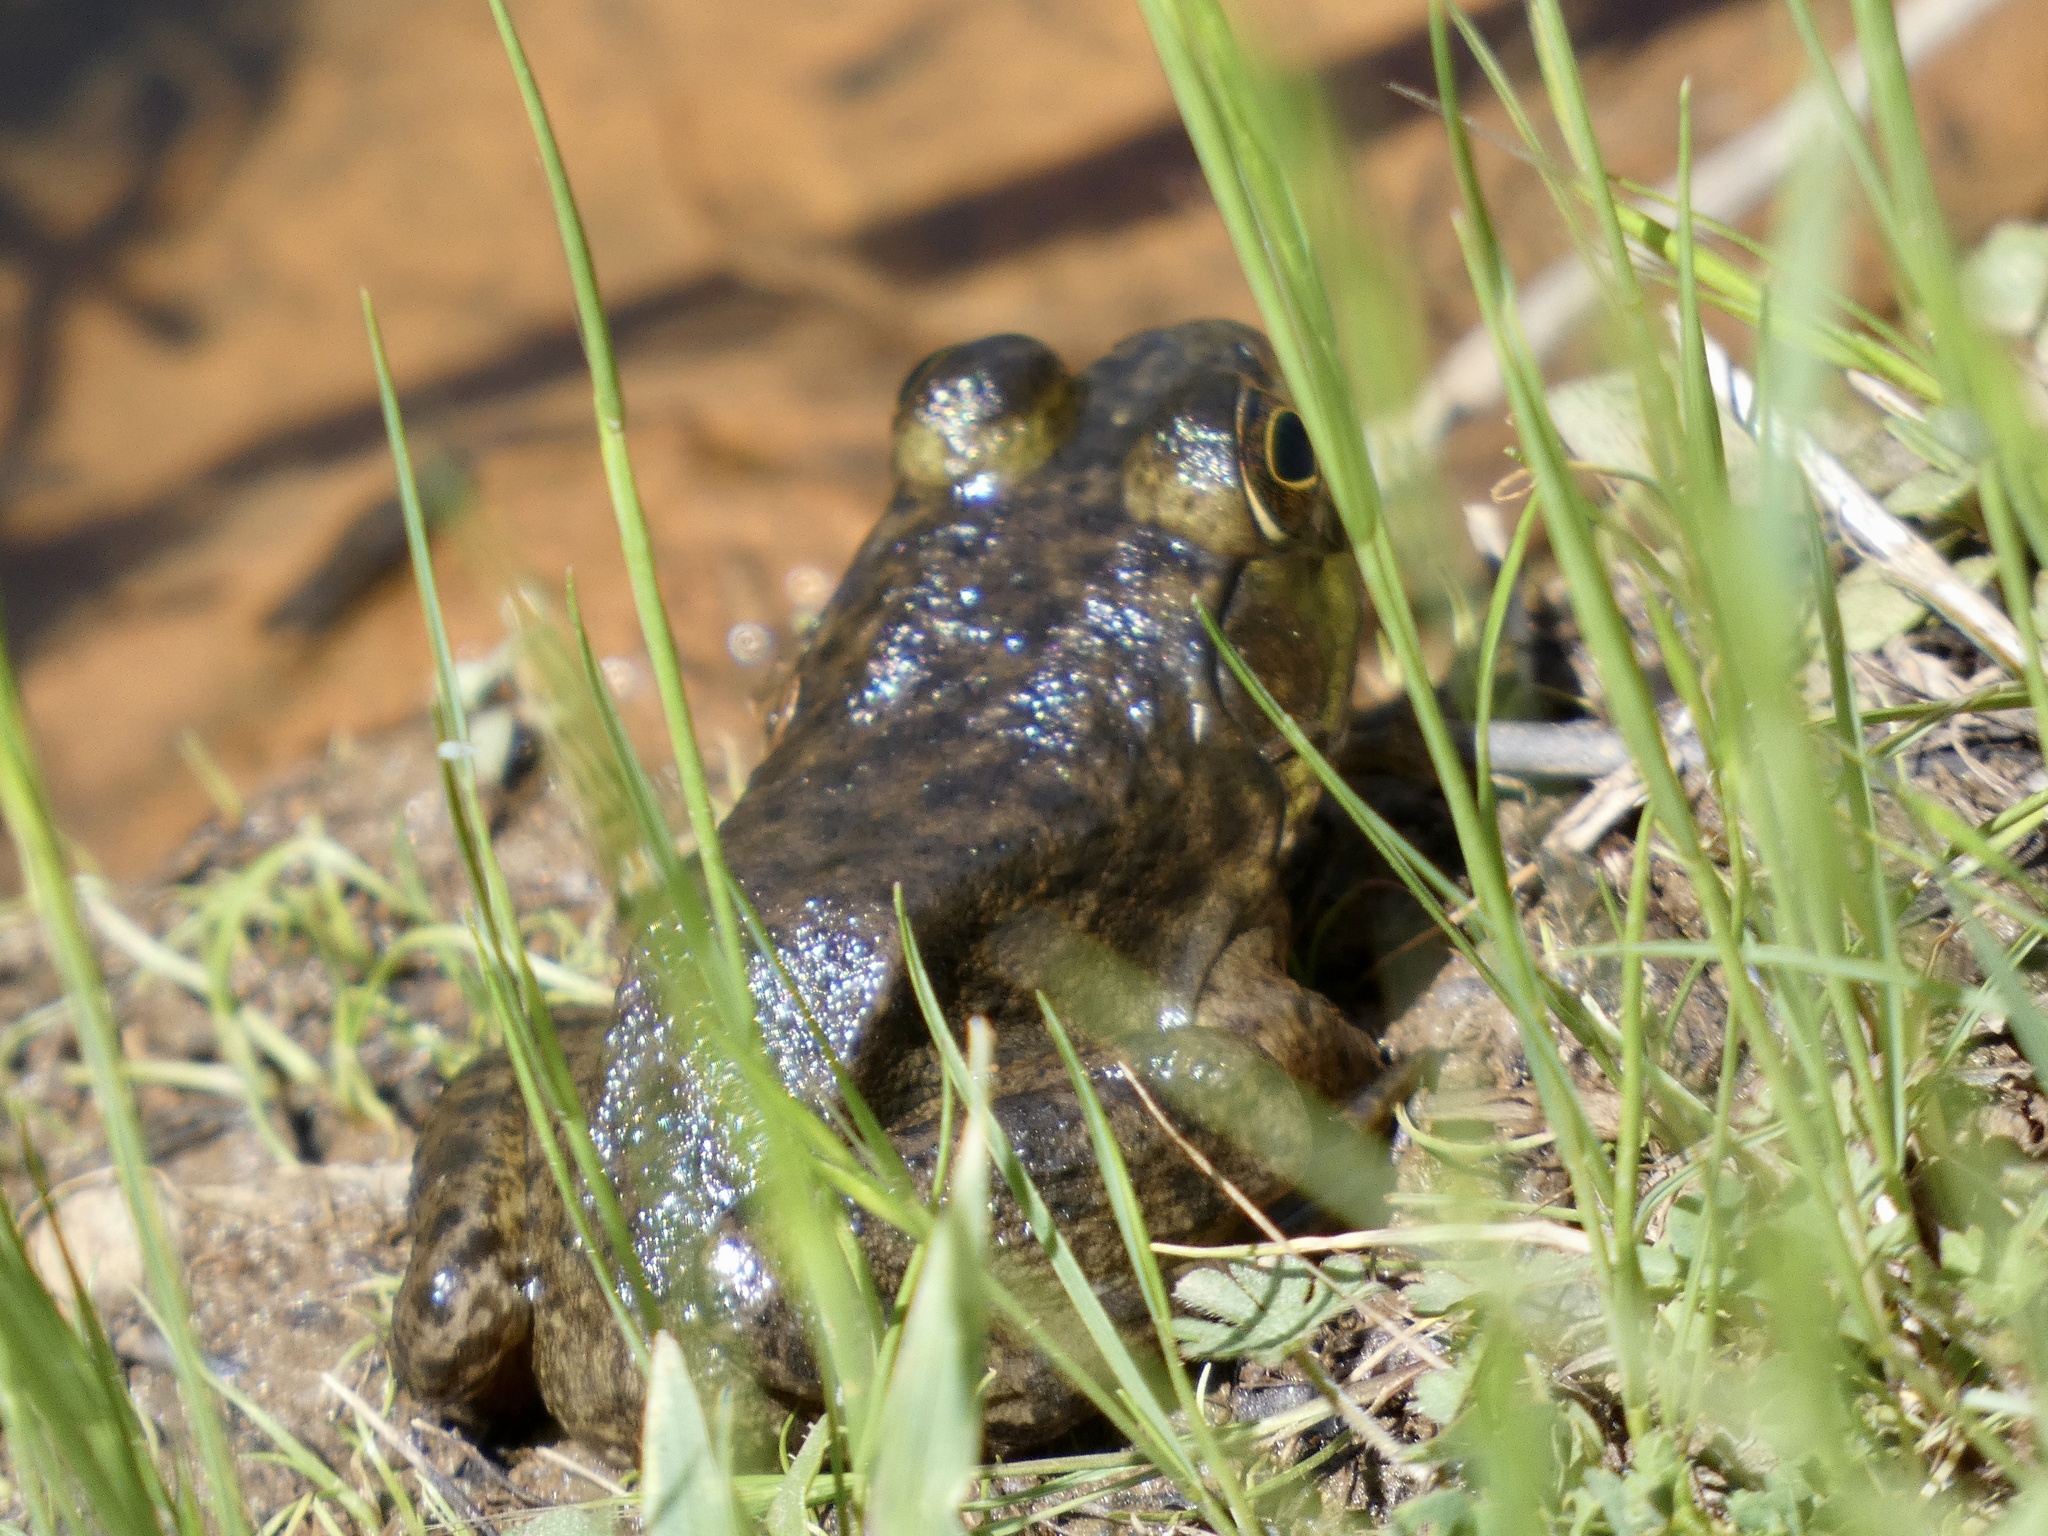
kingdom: Animalia
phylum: Chordata
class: Amphibia
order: Anura
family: Ranidae
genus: Lithobates
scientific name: Lithobates catesbeianus
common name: American bullfrog
